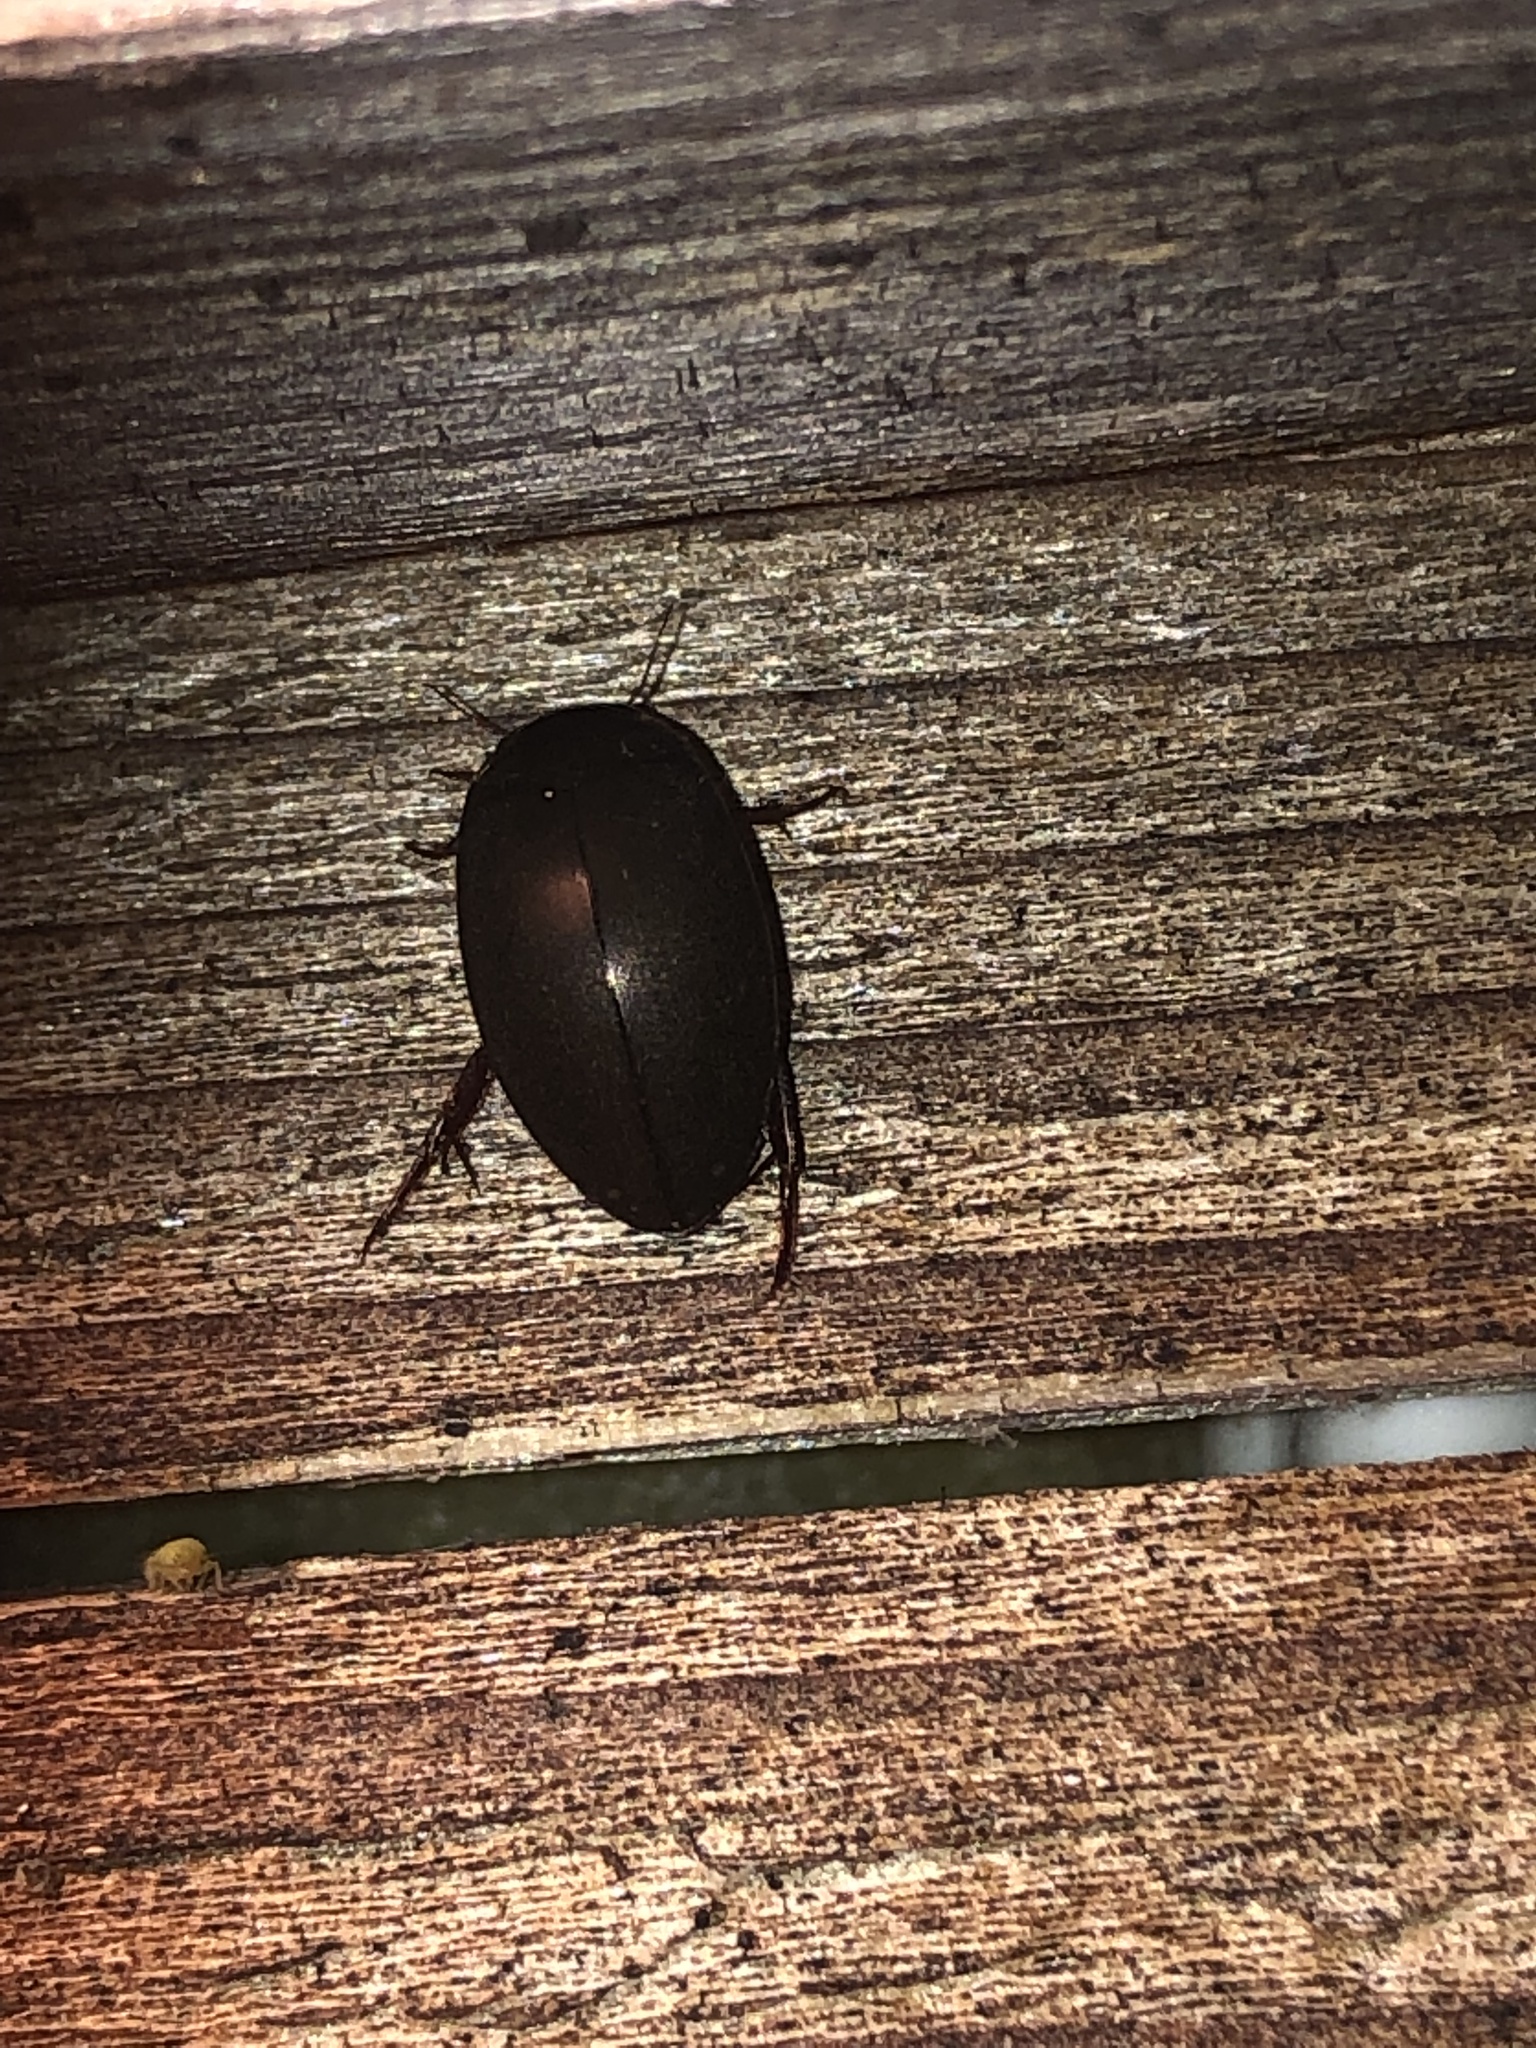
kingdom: Animalia
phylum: Arthropoda
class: Insecta
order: Coleoptera
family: Dytiscidae
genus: Ilybius
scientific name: Ilybius
